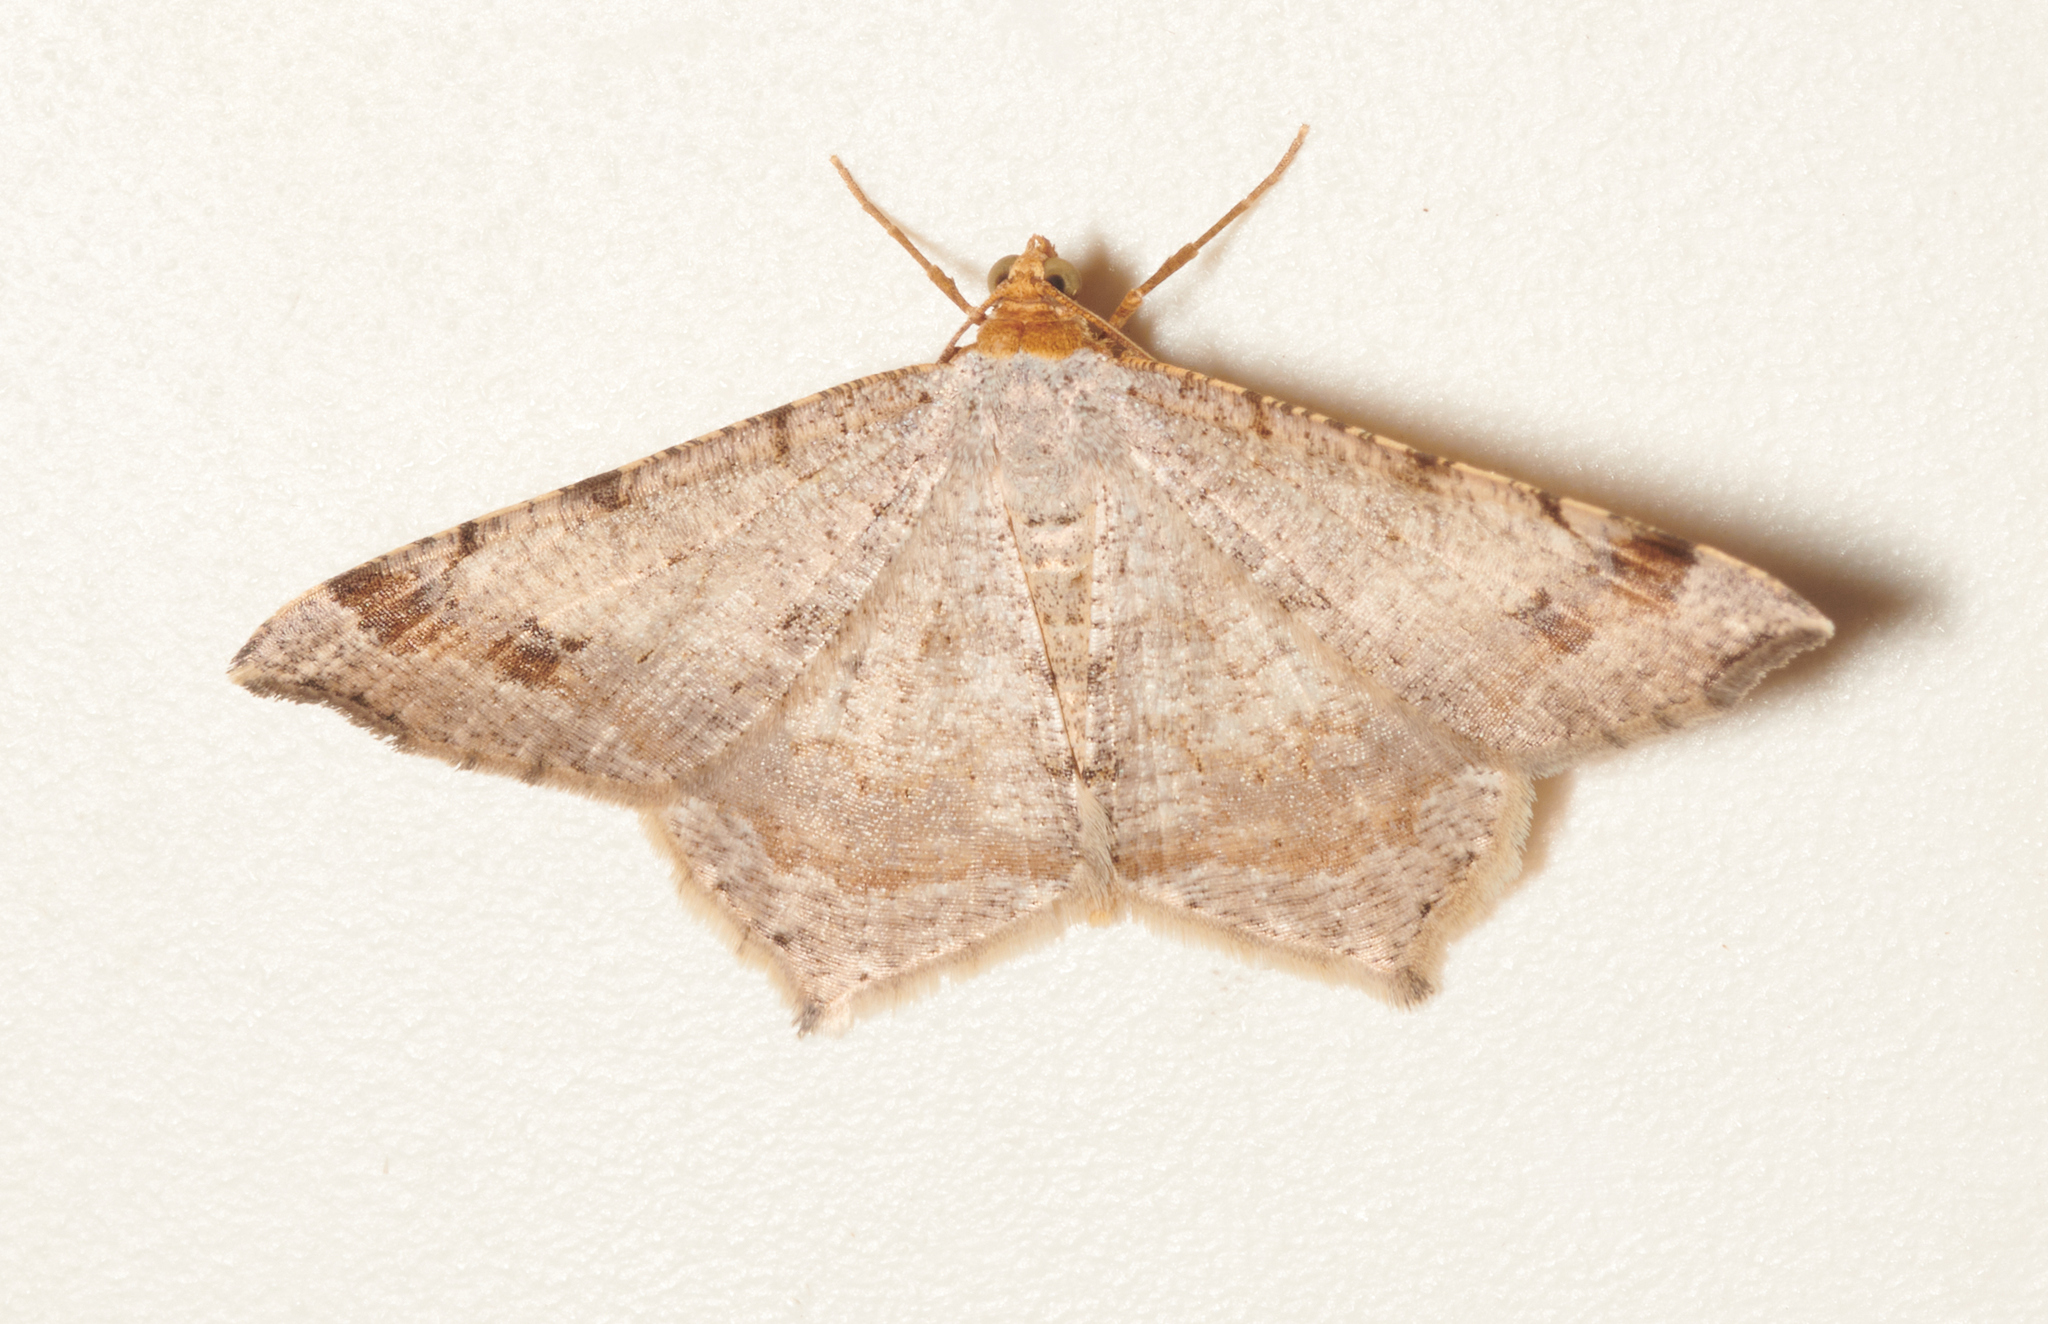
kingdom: Animalia
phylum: Arthropoda
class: Insecta
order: Lepidoptera
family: Geometridae
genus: Macaria
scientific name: Macaria bisignata
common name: Red-headed inchworm
